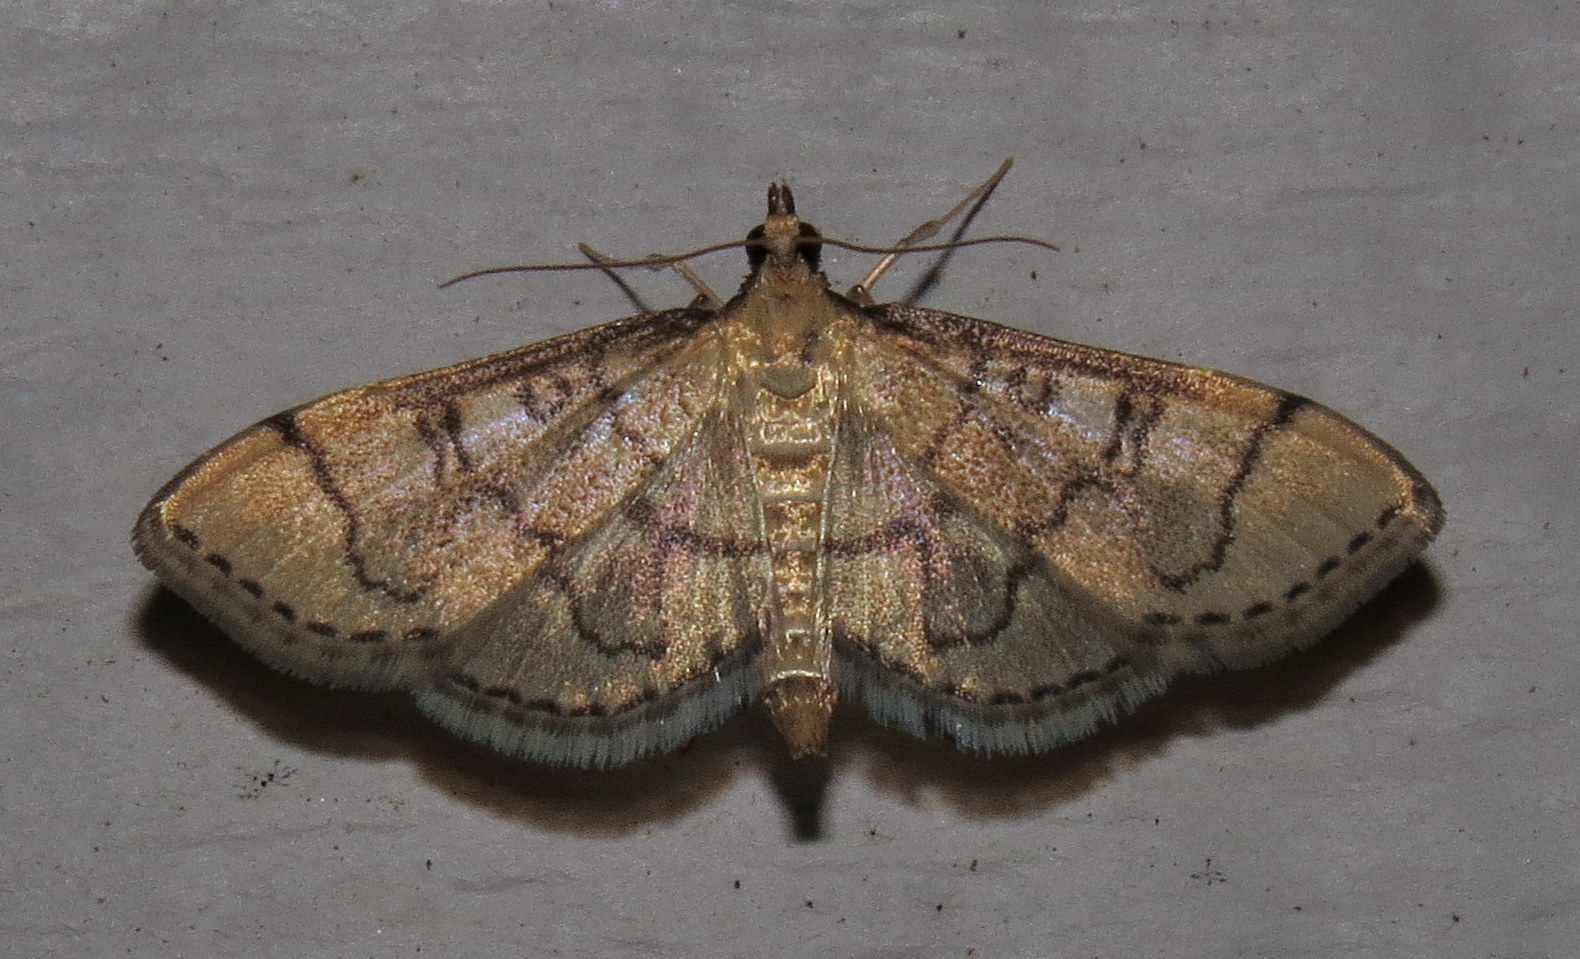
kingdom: Animalia
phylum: Arthropoda
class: Insecta
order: Lepidoptera
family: Crambidae
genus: Lamprosema
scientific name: Lamprosema Blepharomastix ranalis
